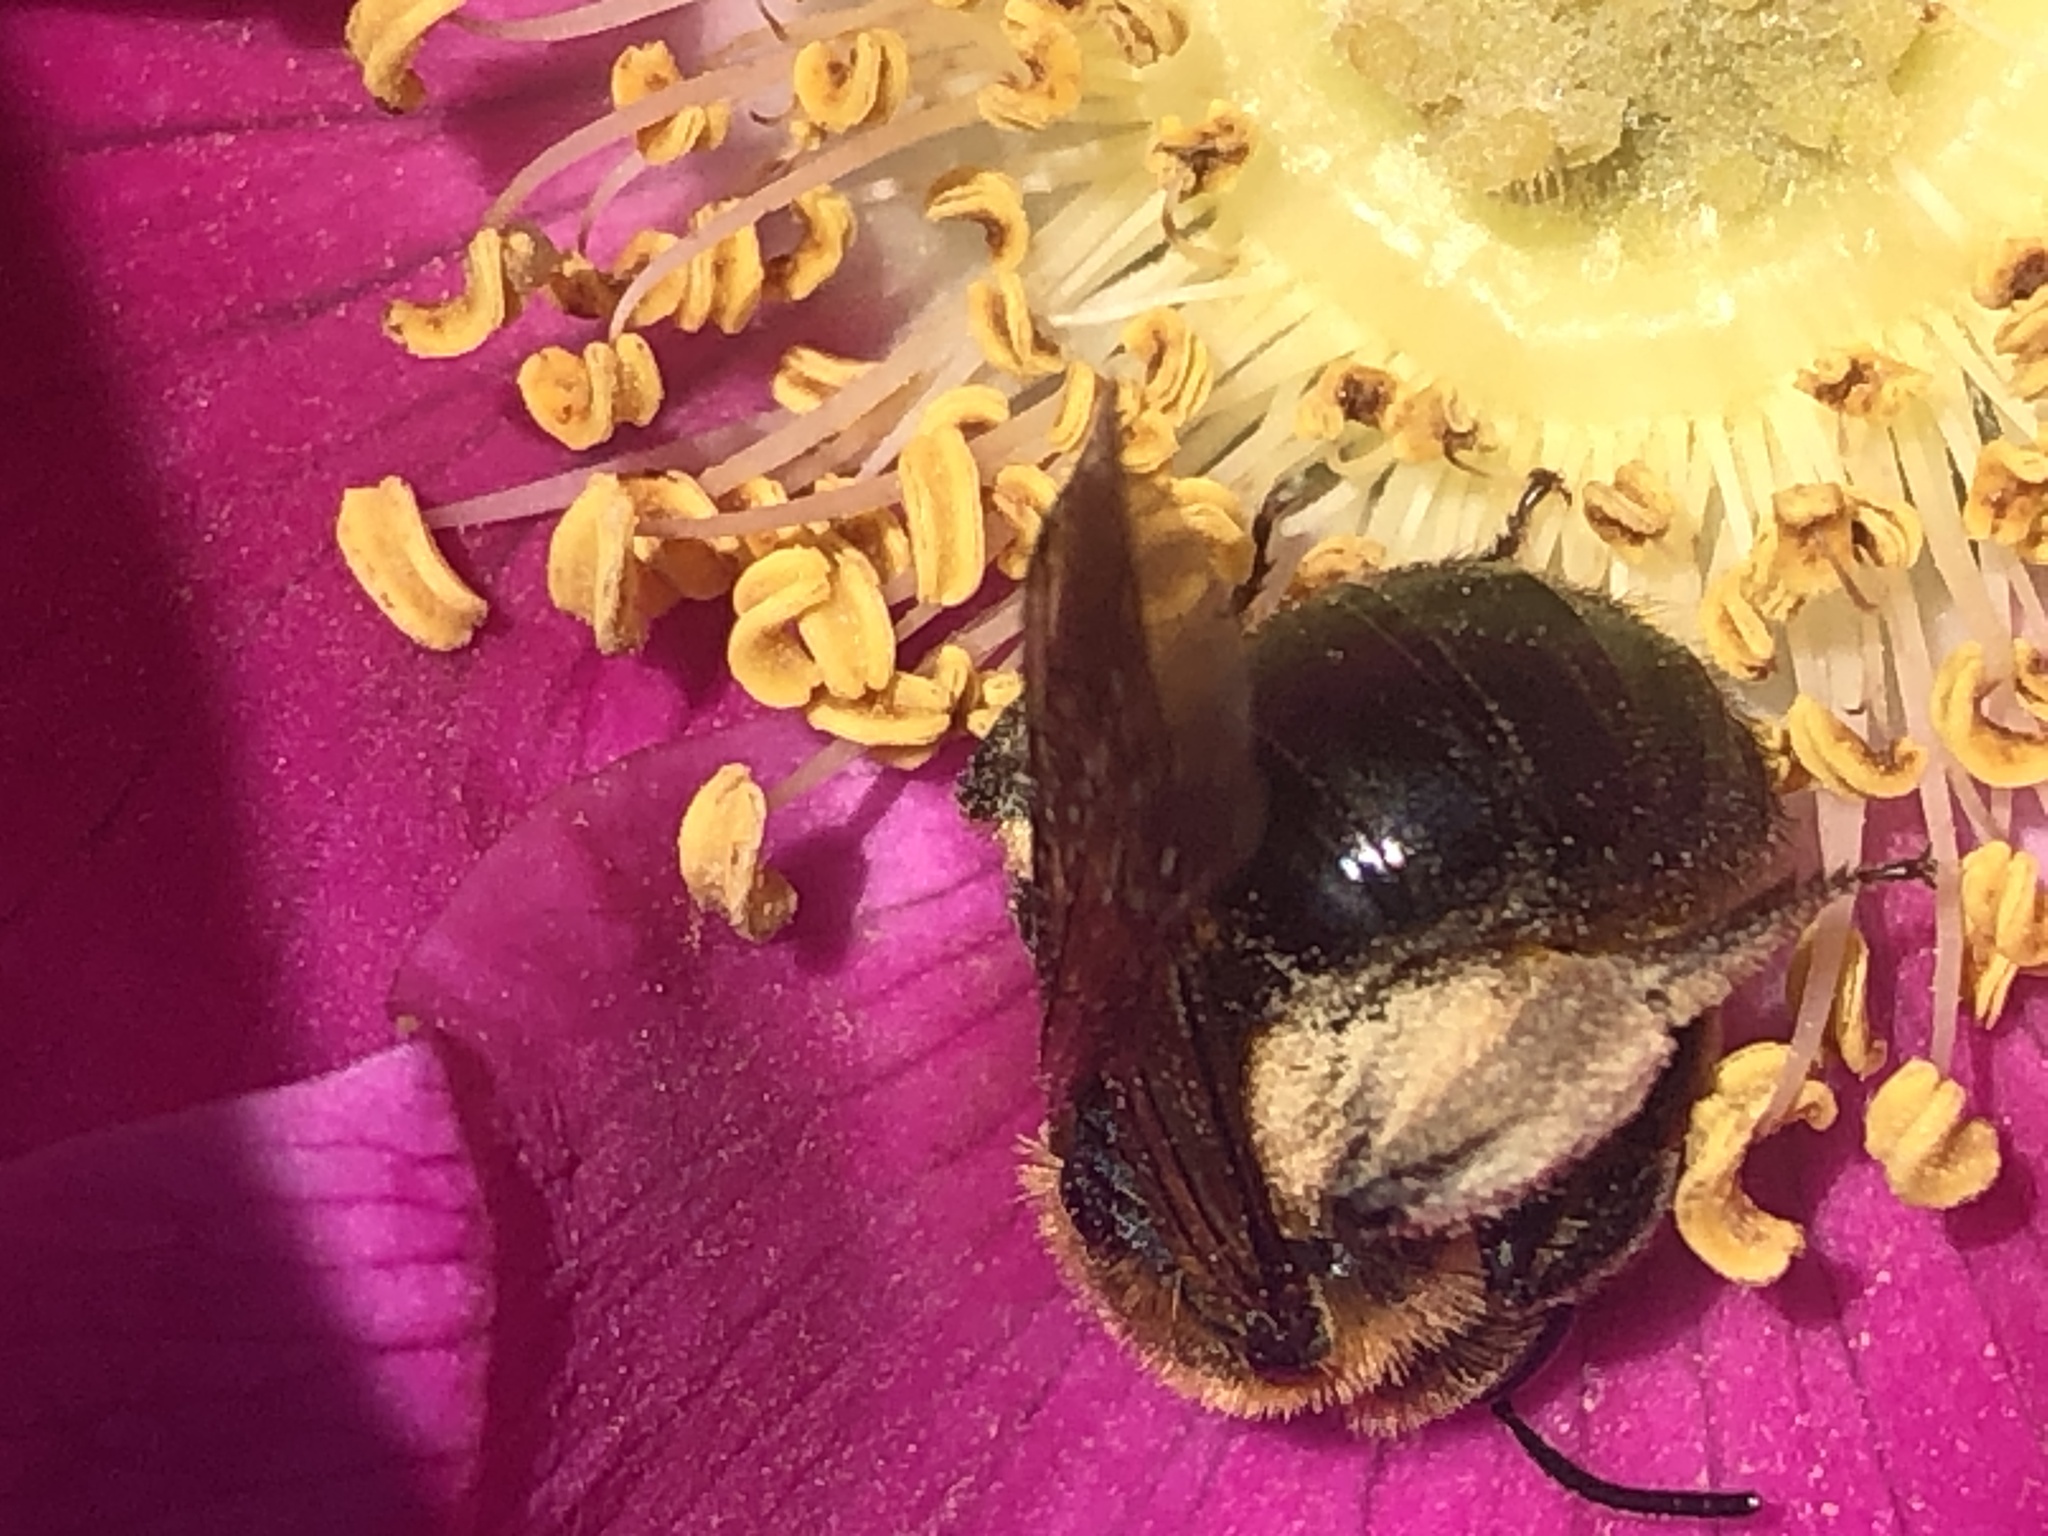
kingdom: Animalia
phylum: Arthropoda
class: Insecta
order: Hymenoptera
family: Andrenidae
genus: Andrena
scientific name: Andrena nivalis
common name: Snowy mining bee
